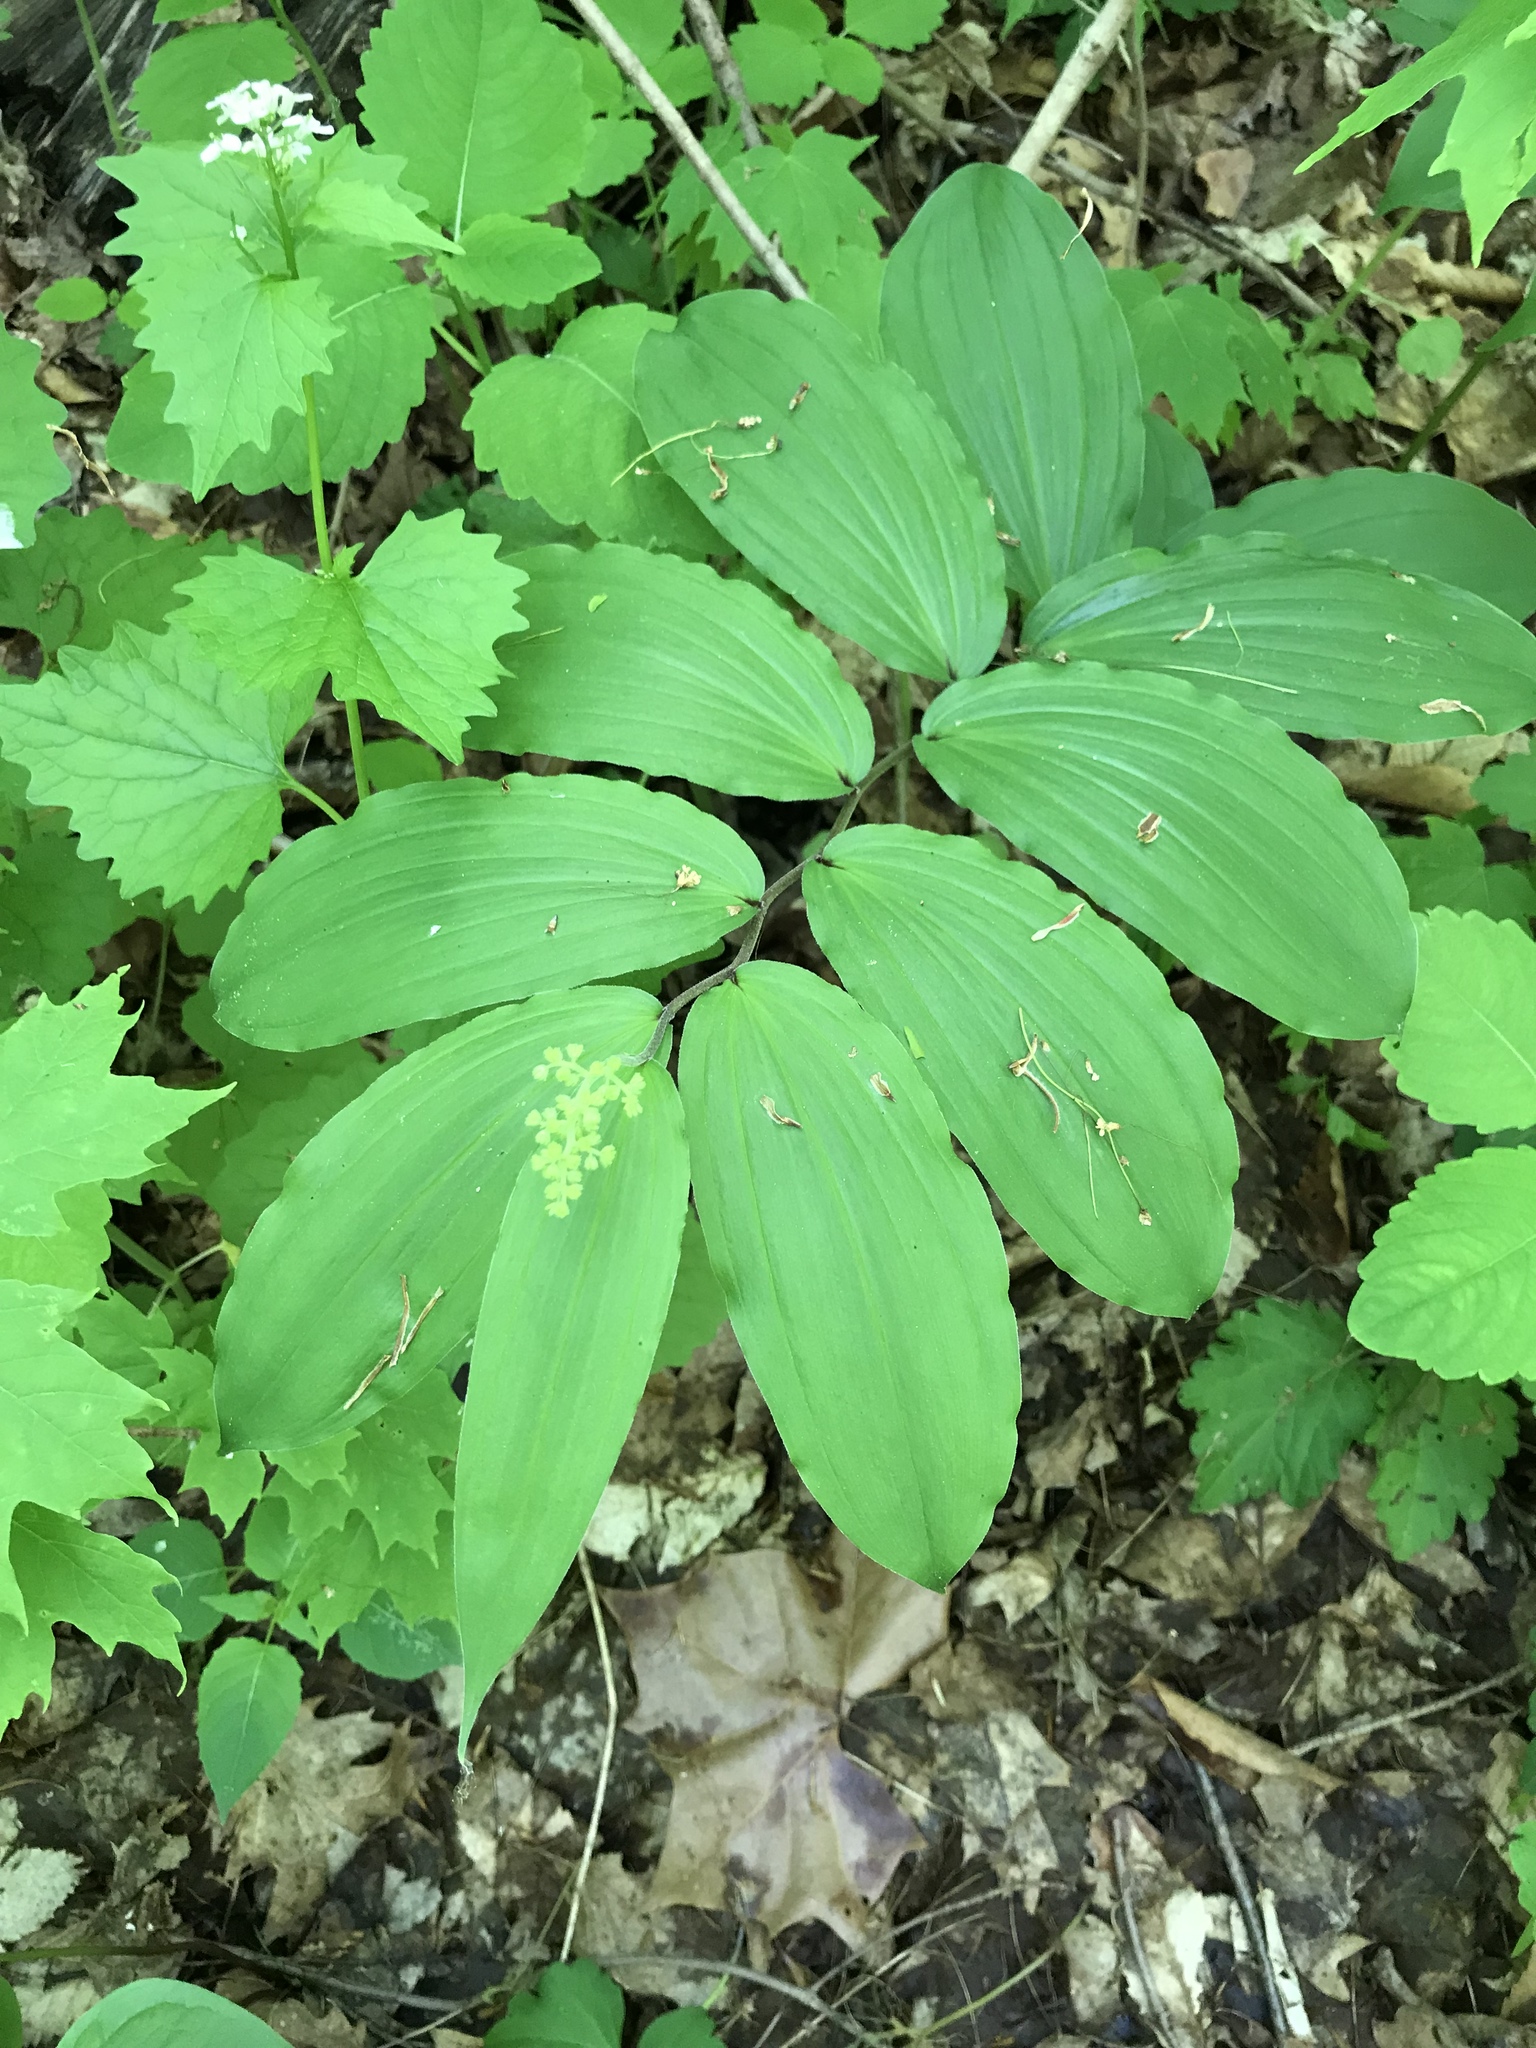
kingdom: Plantae
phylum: Tracheophyta
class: Liliopsida
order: Asparagales
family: Asparagaceae
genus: Maianthemum
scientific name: Maianthemum racemosum
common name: False spikenard
